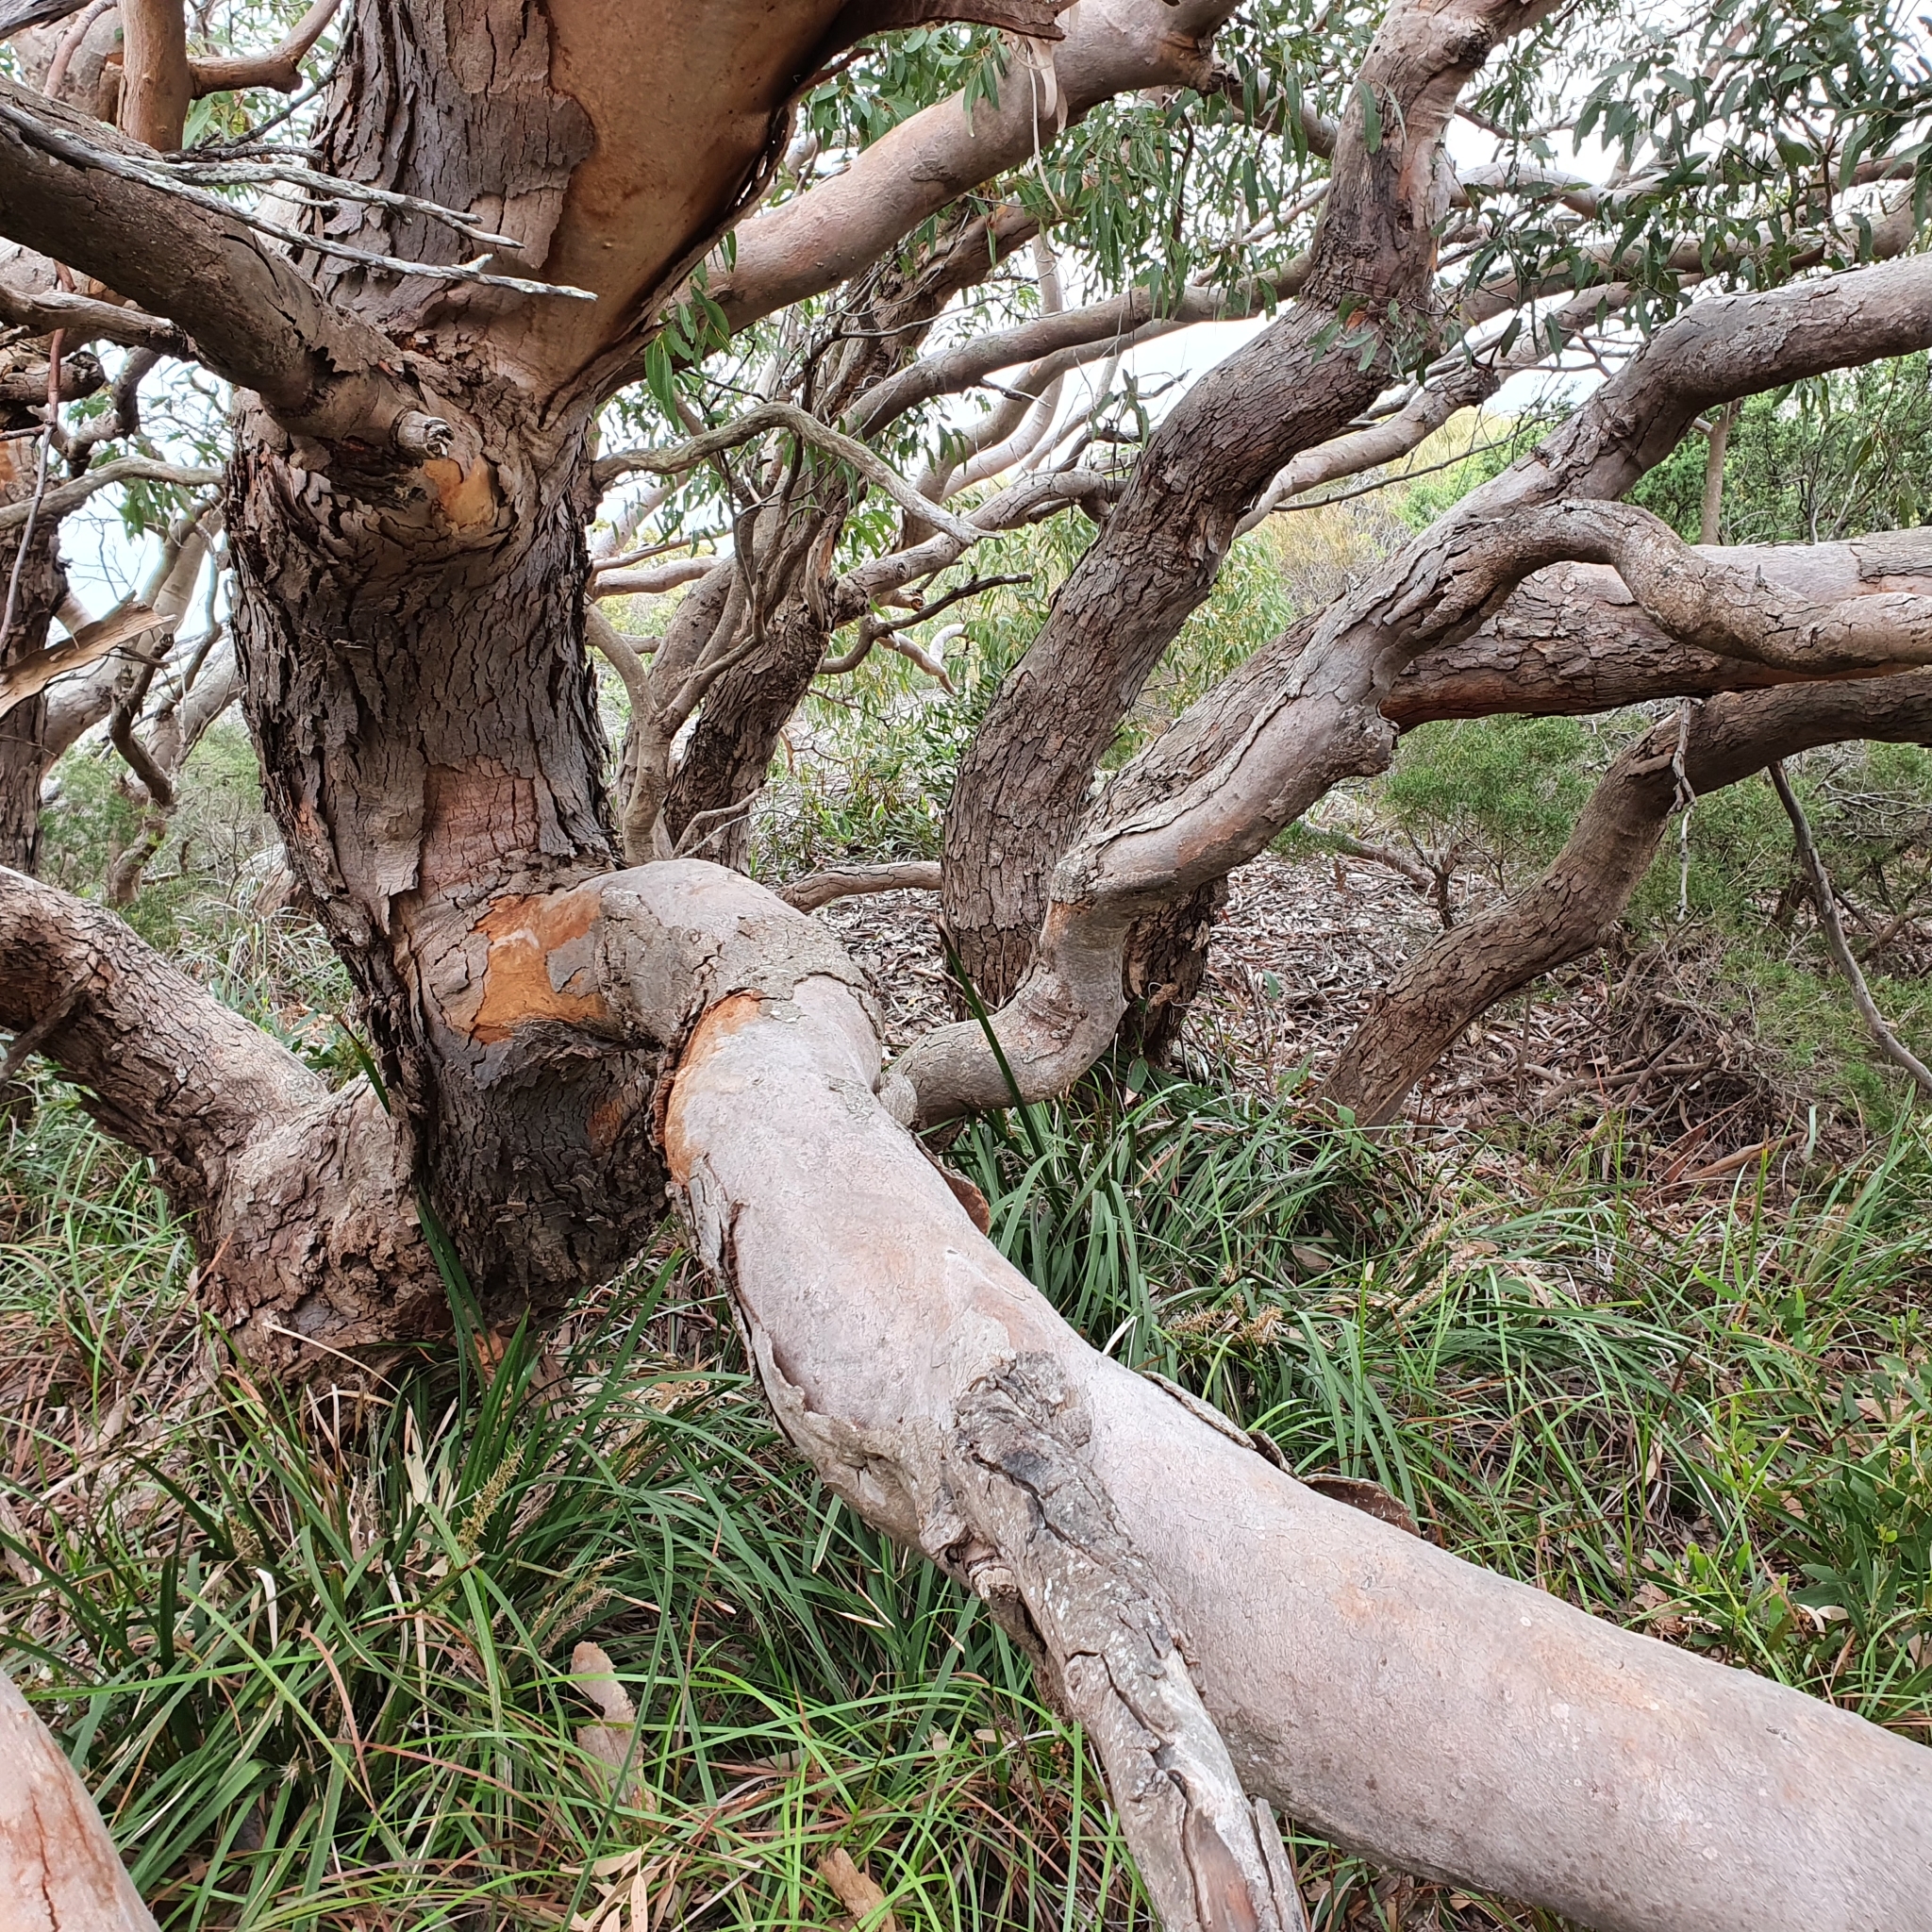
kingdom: Plantae
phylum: Tracheophyta
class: Magnoliopsida
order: Myrtales
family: Myrtaceae
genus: Eucalyptus
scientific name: Eucalyptus punctata
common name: Gray gum
